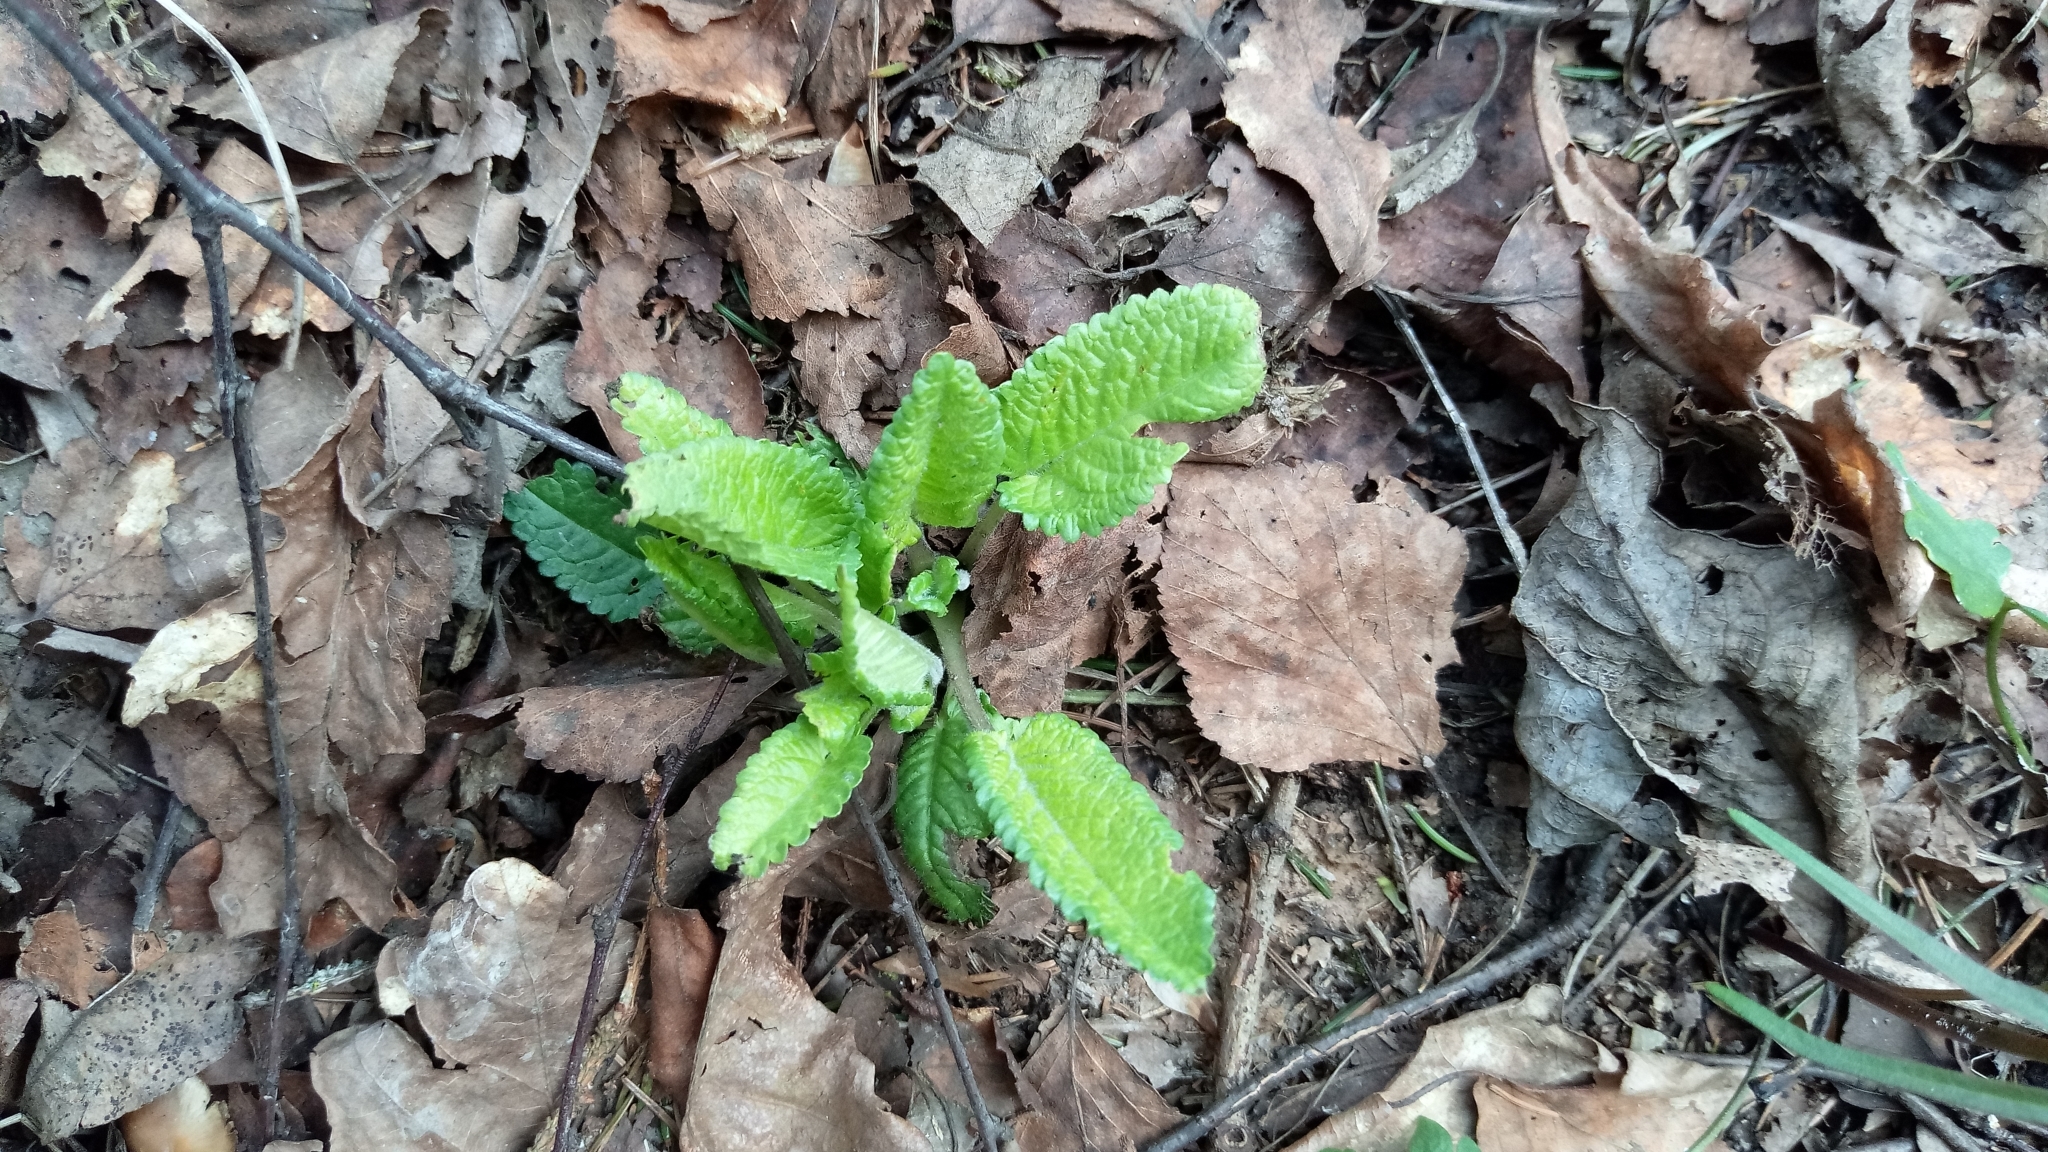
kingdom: Plantae
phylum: Tracheophyta
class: Magnoliopsida
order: Lamiales
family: Lamiaceae
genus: Betonica
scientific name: Betonica officinalis
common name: Bishop's-wort
